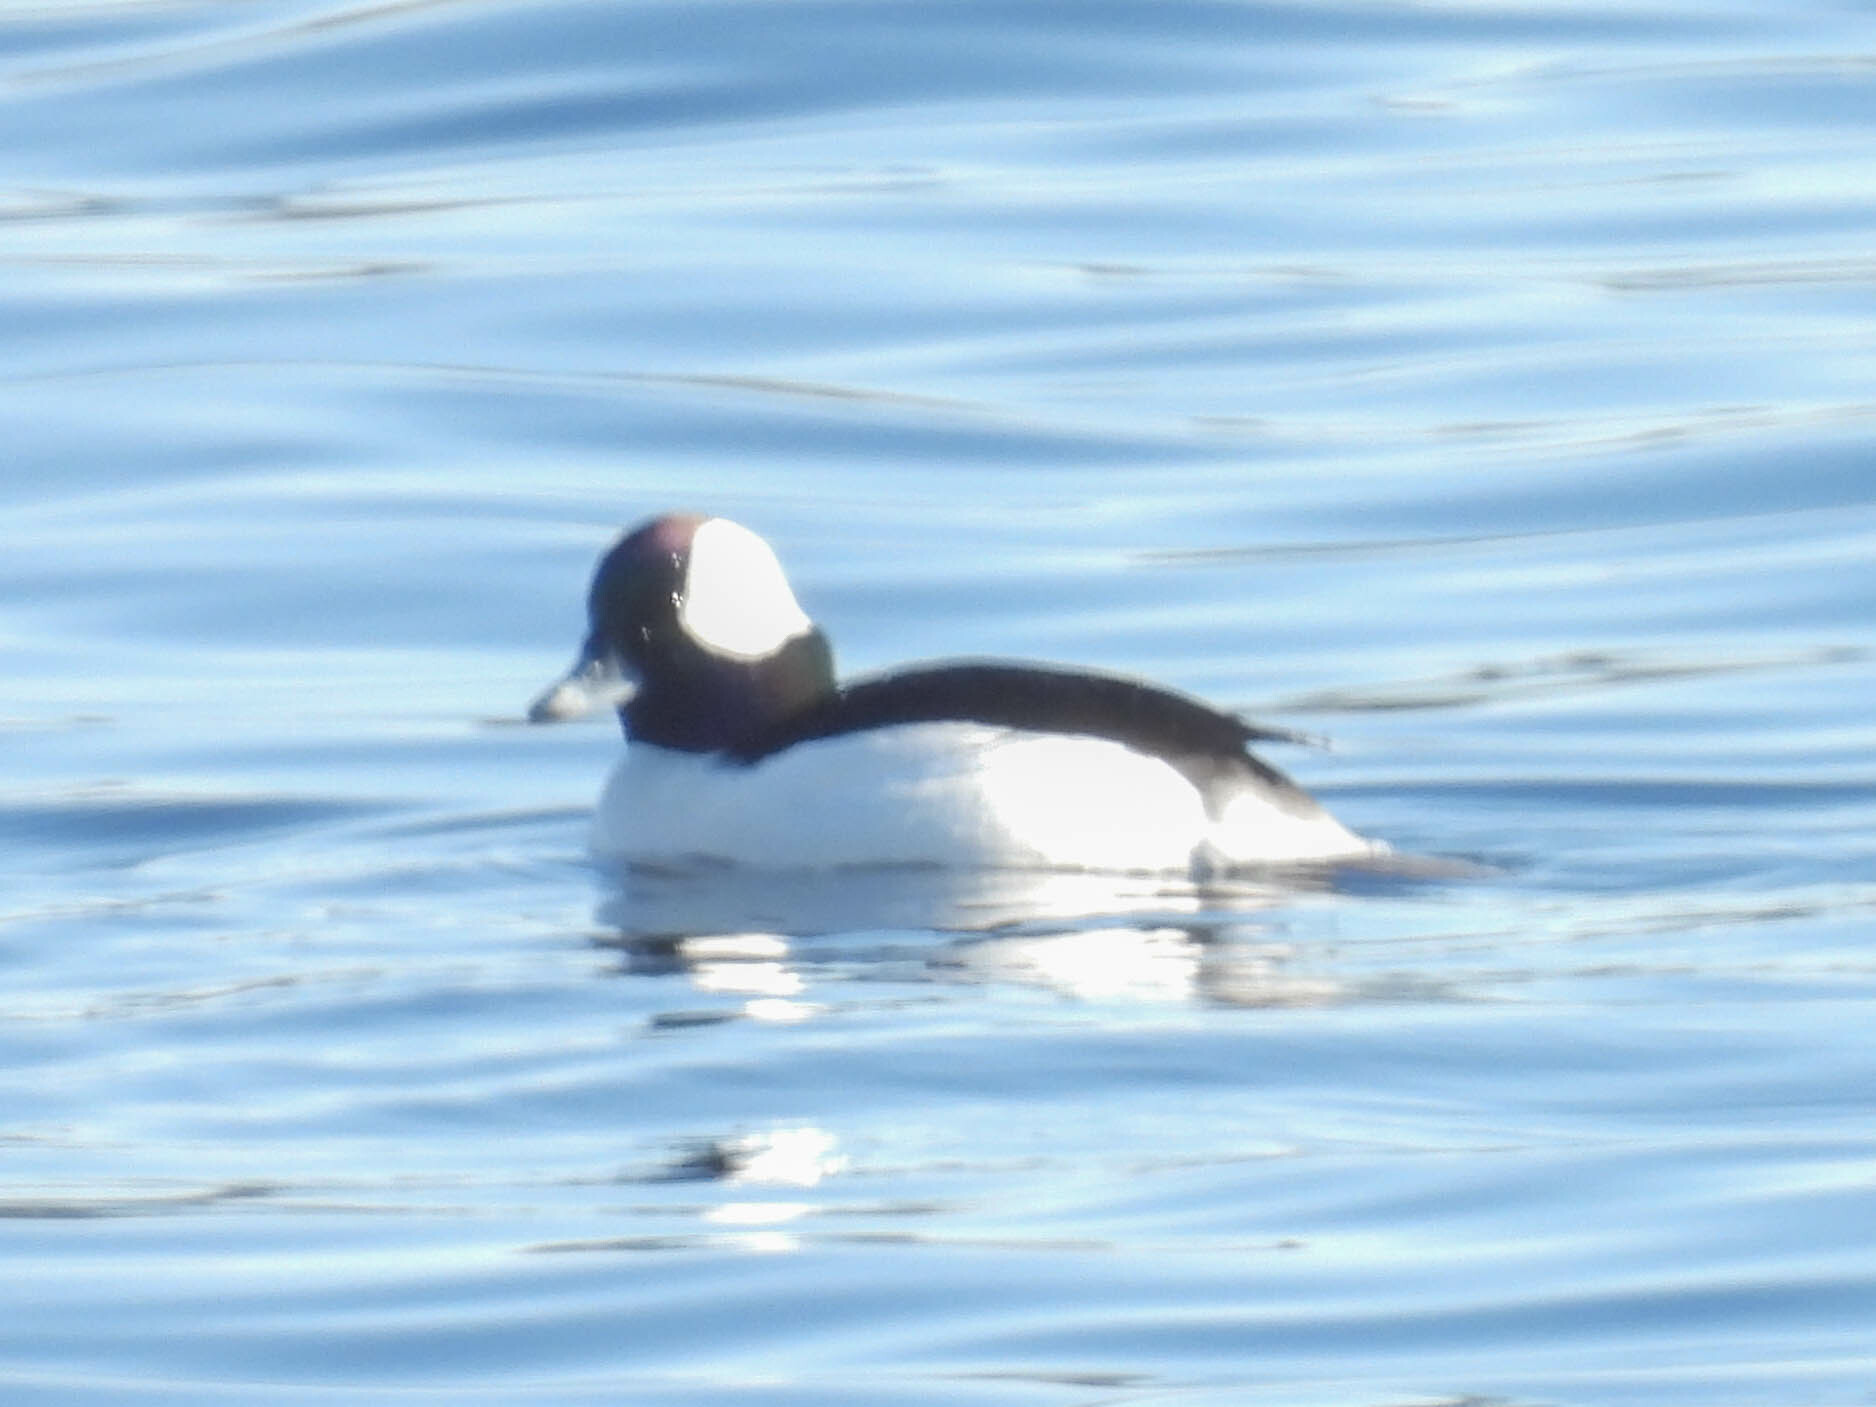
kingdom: Animalia
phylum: Chordata
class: Aves
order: Anseriformes
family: Anatidae
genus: Bucephala
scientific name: Bucephala albeola
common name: Bufflehead
